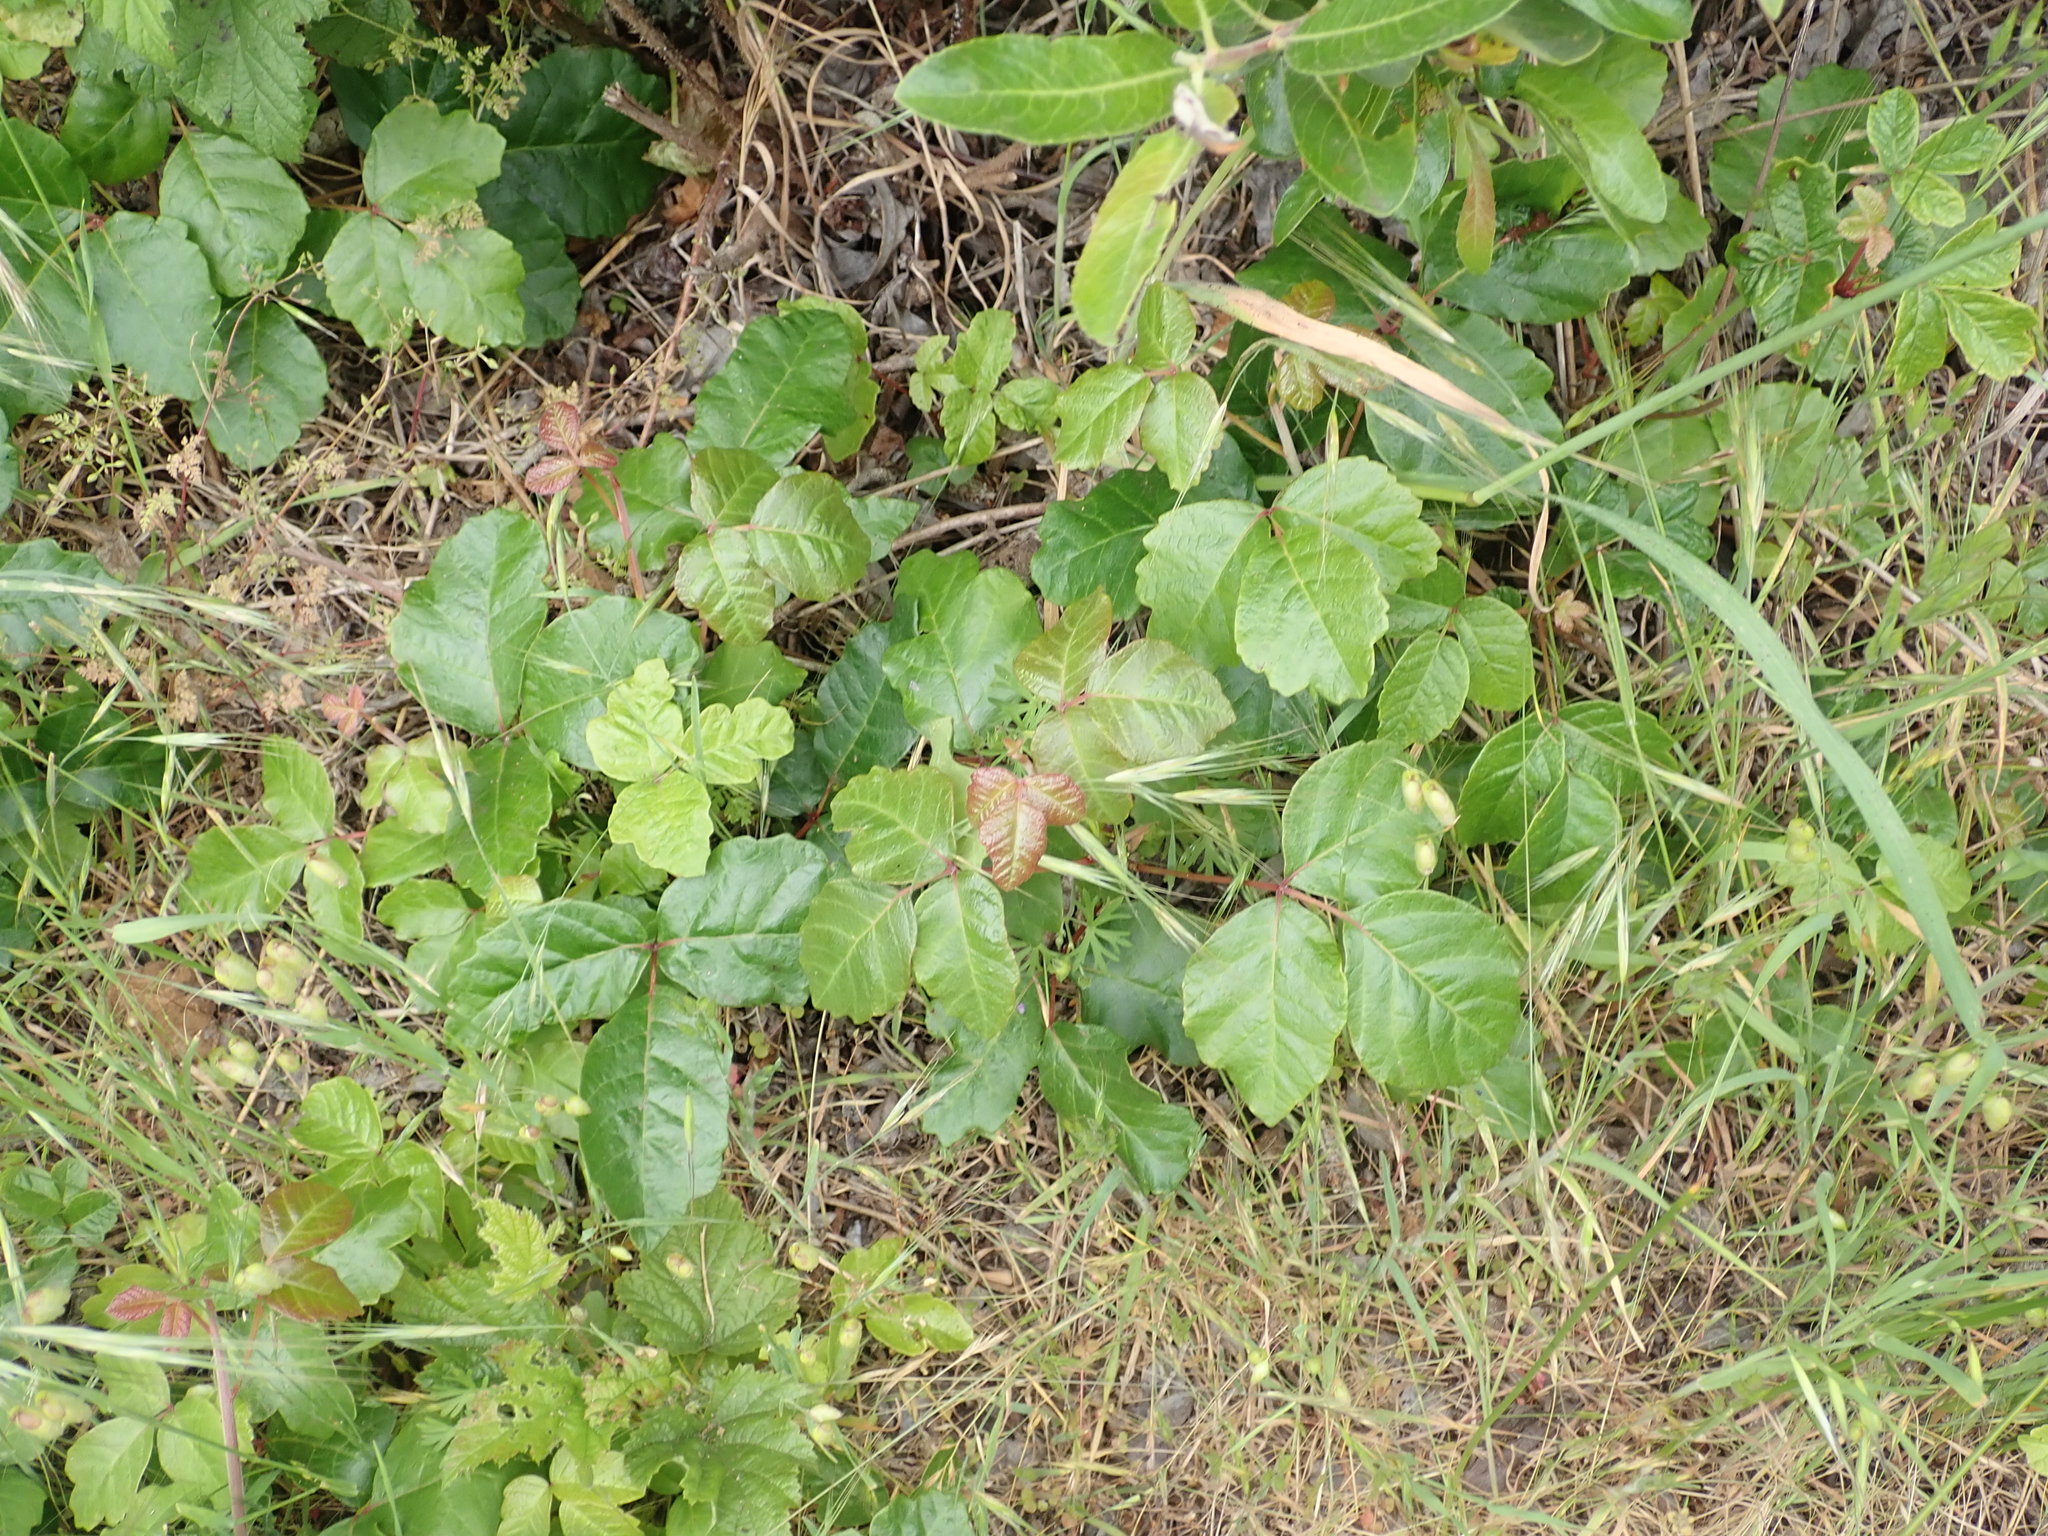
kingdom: Plantae
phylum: Tracheophyta
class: Magnoliopsida
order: Sapindales
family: Anacardiaceae
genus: Toxicodendron
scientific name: Toxicodendron diversilobum
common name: Pacific poison-oak
